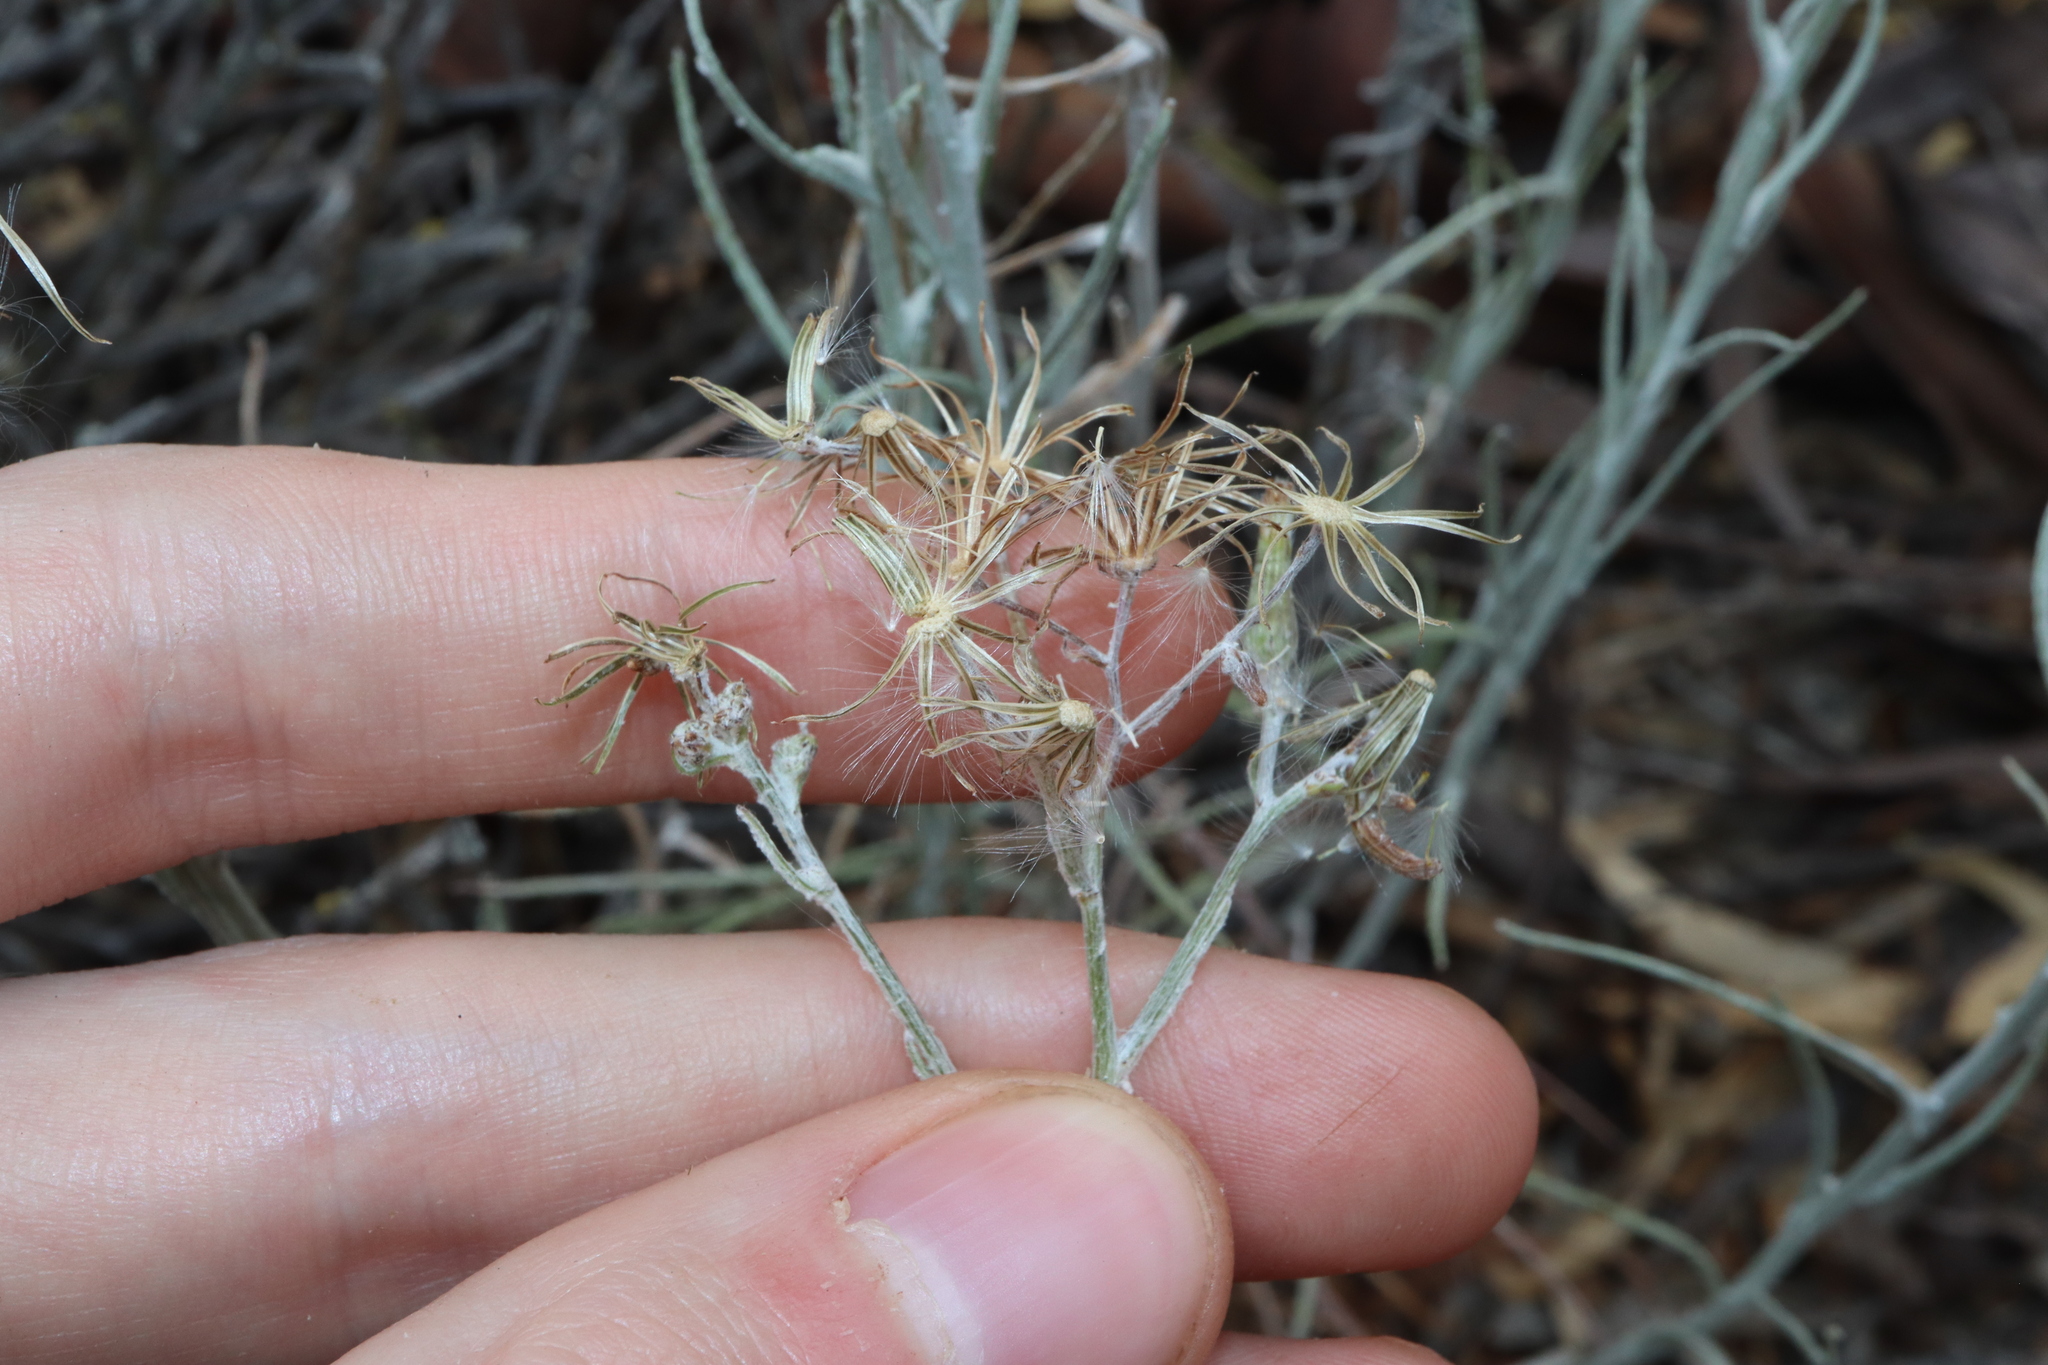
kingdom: Plantae
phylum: Tracheophyta
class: Magnoliopsida
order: Asterales
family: Asteraceae
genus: Senecio
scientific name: Senecio quadridentatus
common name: Cotton fireweed
